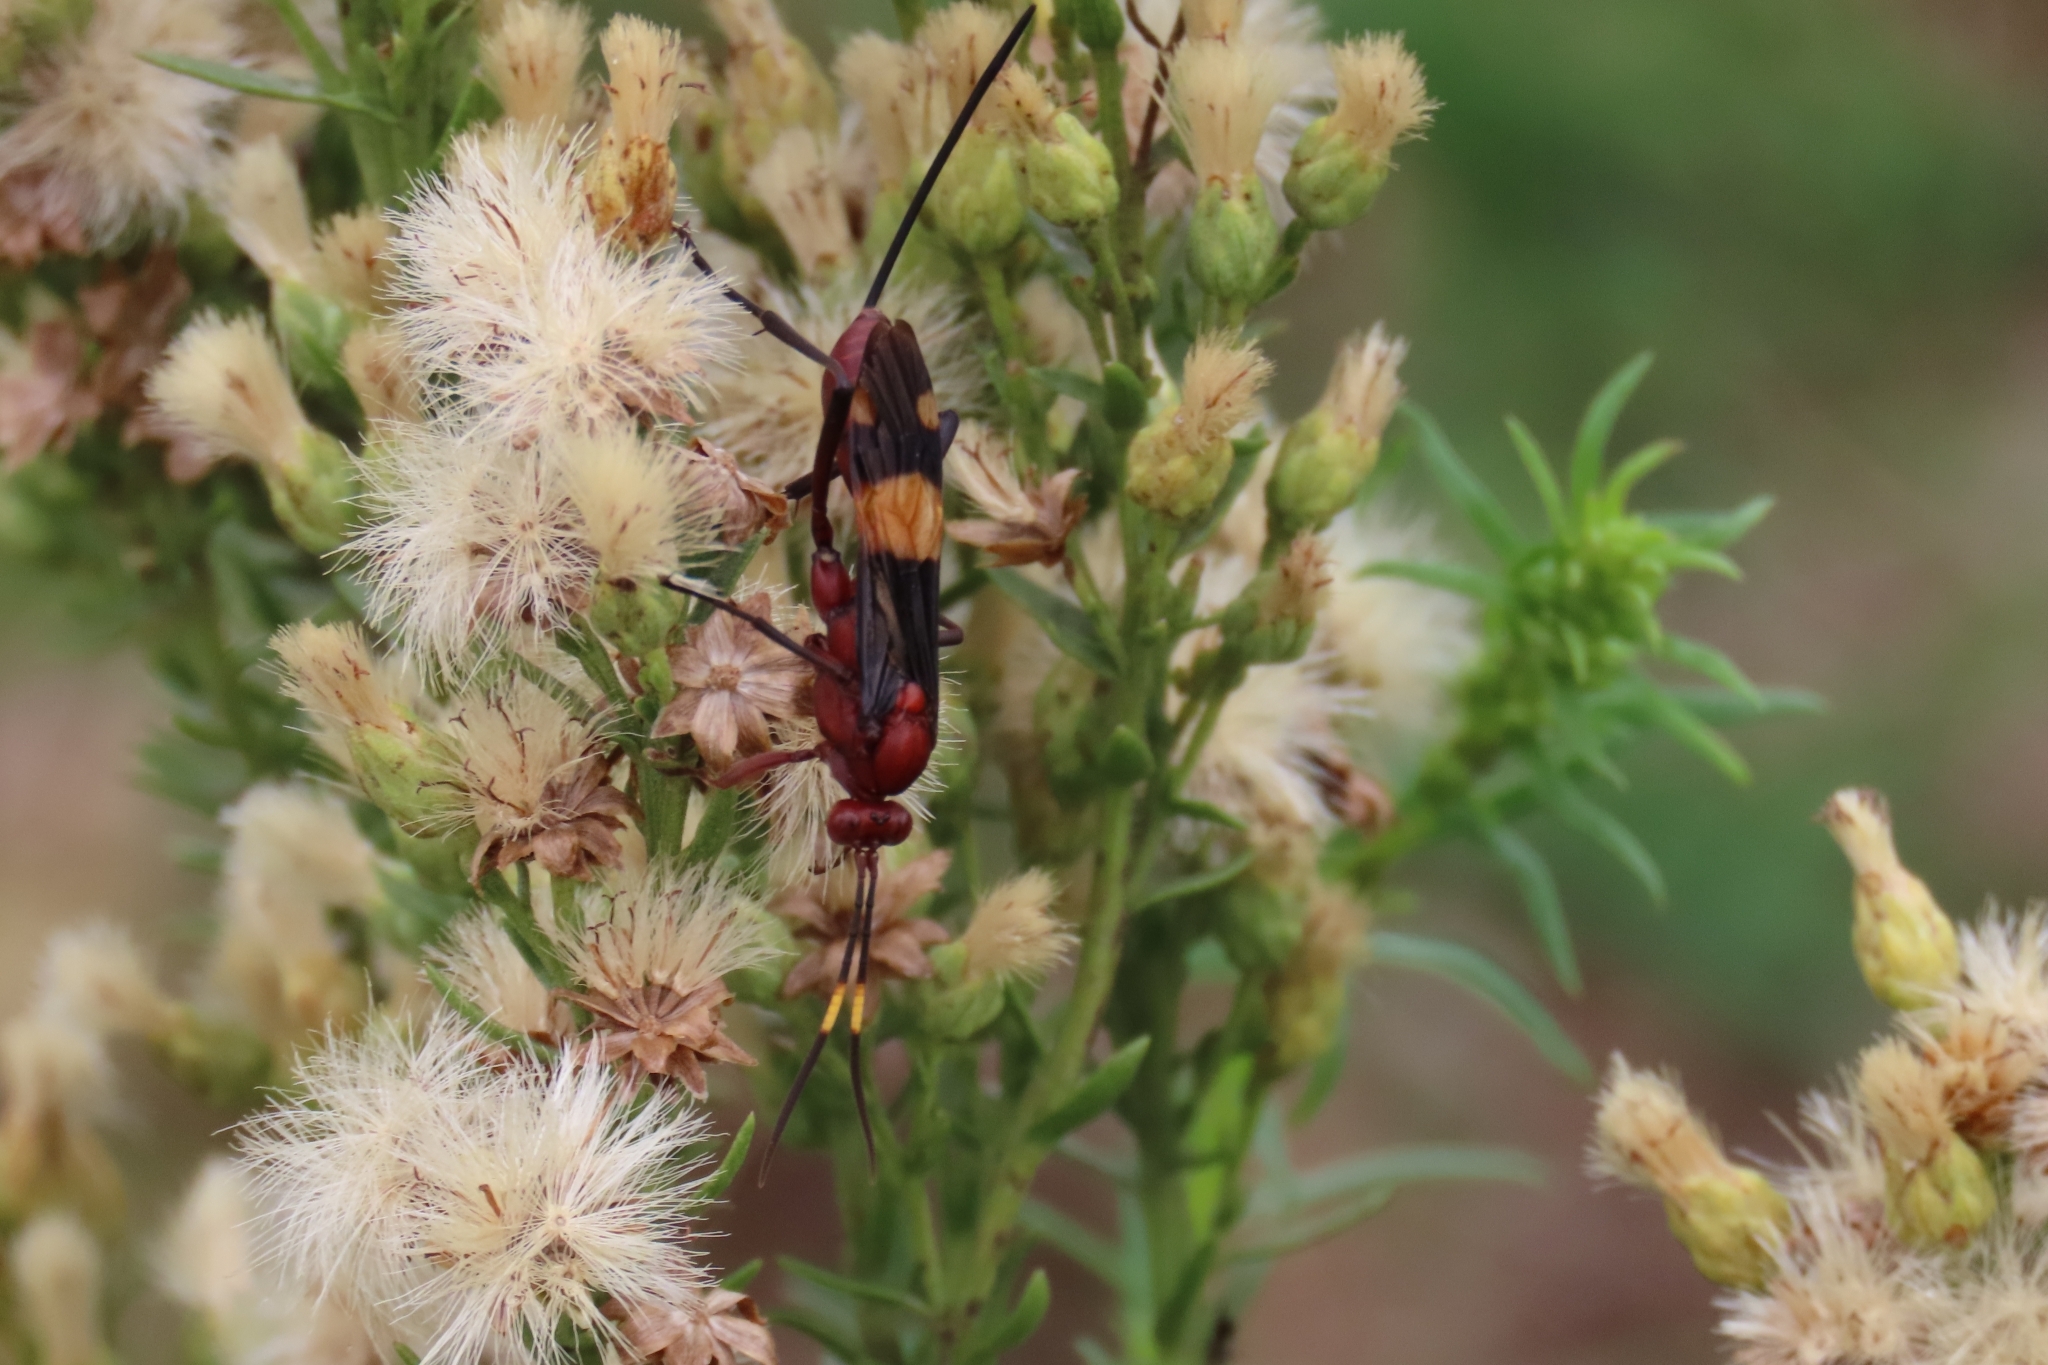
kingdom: Animalia
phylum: Arthropoda
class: Insecta
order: Hymenoptera
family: Ichneumonidae
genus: Compsocryptus
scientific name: Compsocryptus melanostigma
